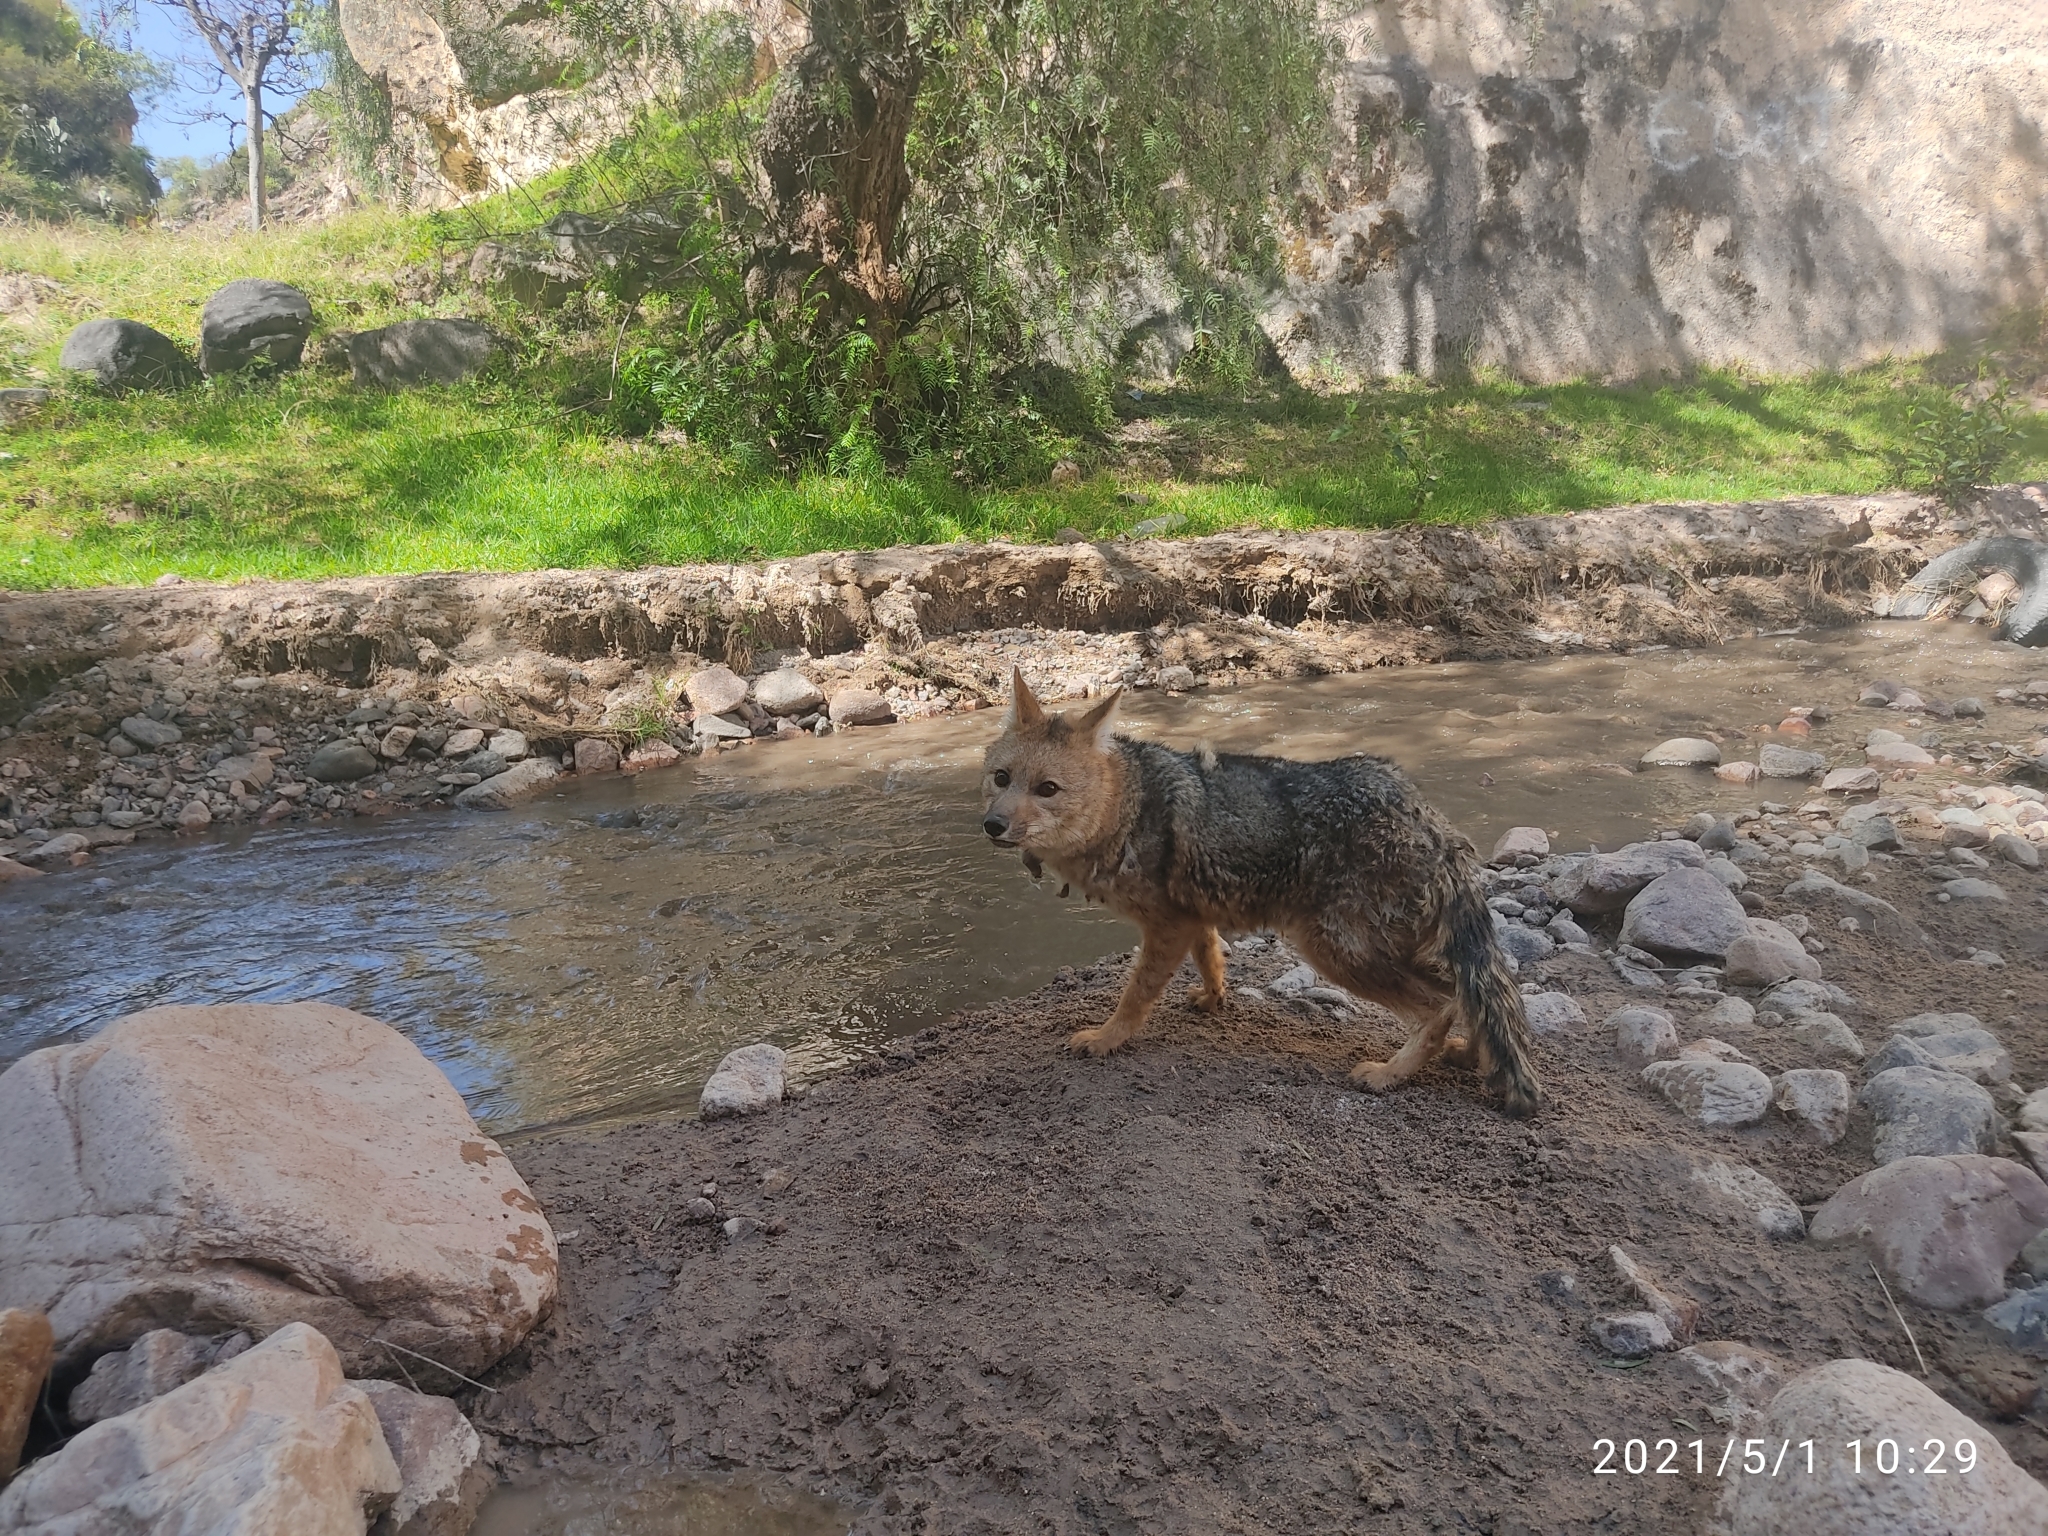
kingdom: Animalia
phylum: Chordata
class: Mammalia
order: Carnivora
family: Canidae
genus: Lycalopex
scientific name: Lycalopex culpaeus
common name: Culpeo
